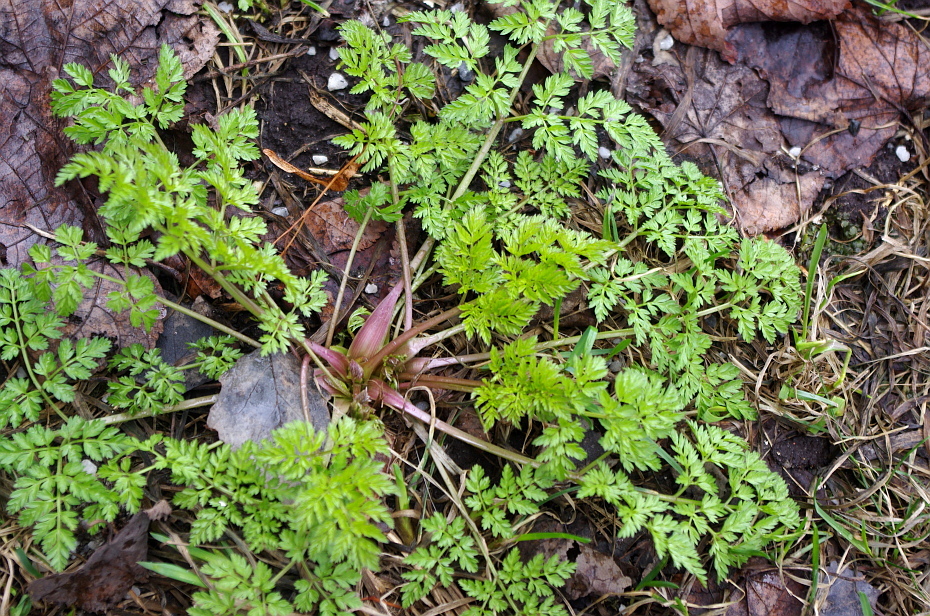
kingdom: Plantae
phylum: Tracheophyta
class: Magnoliopsida
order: Apiales
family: Apiaceae
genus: Anthriscus
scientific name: Anthriscus sylvestris
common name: Cow parsley
